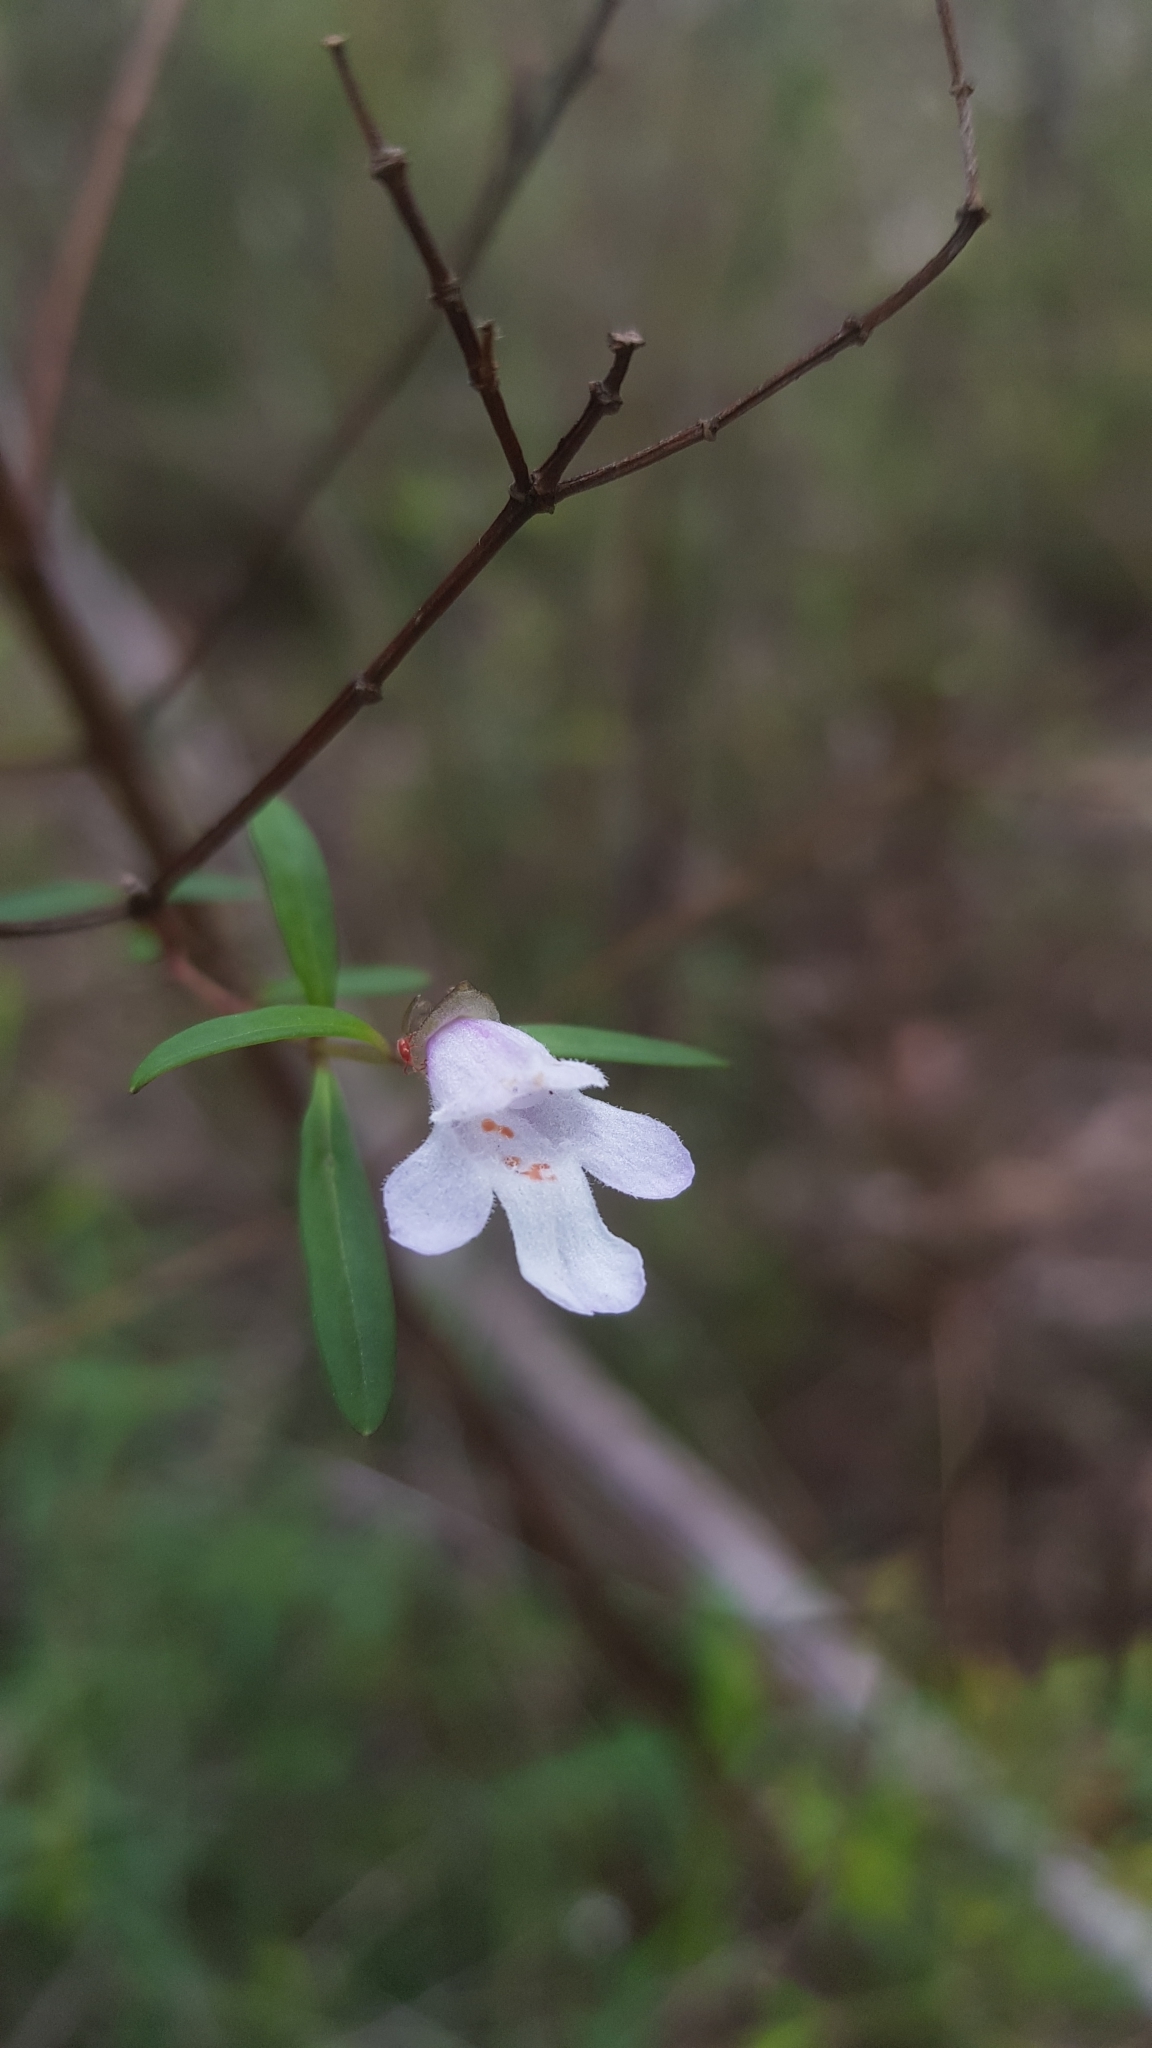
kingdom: Plantae
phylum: Tracheophyta
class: Magnoliopsida
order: Lamiales
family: Lamiaceae
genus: Prostanthera
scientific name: Prostanthera linearis
